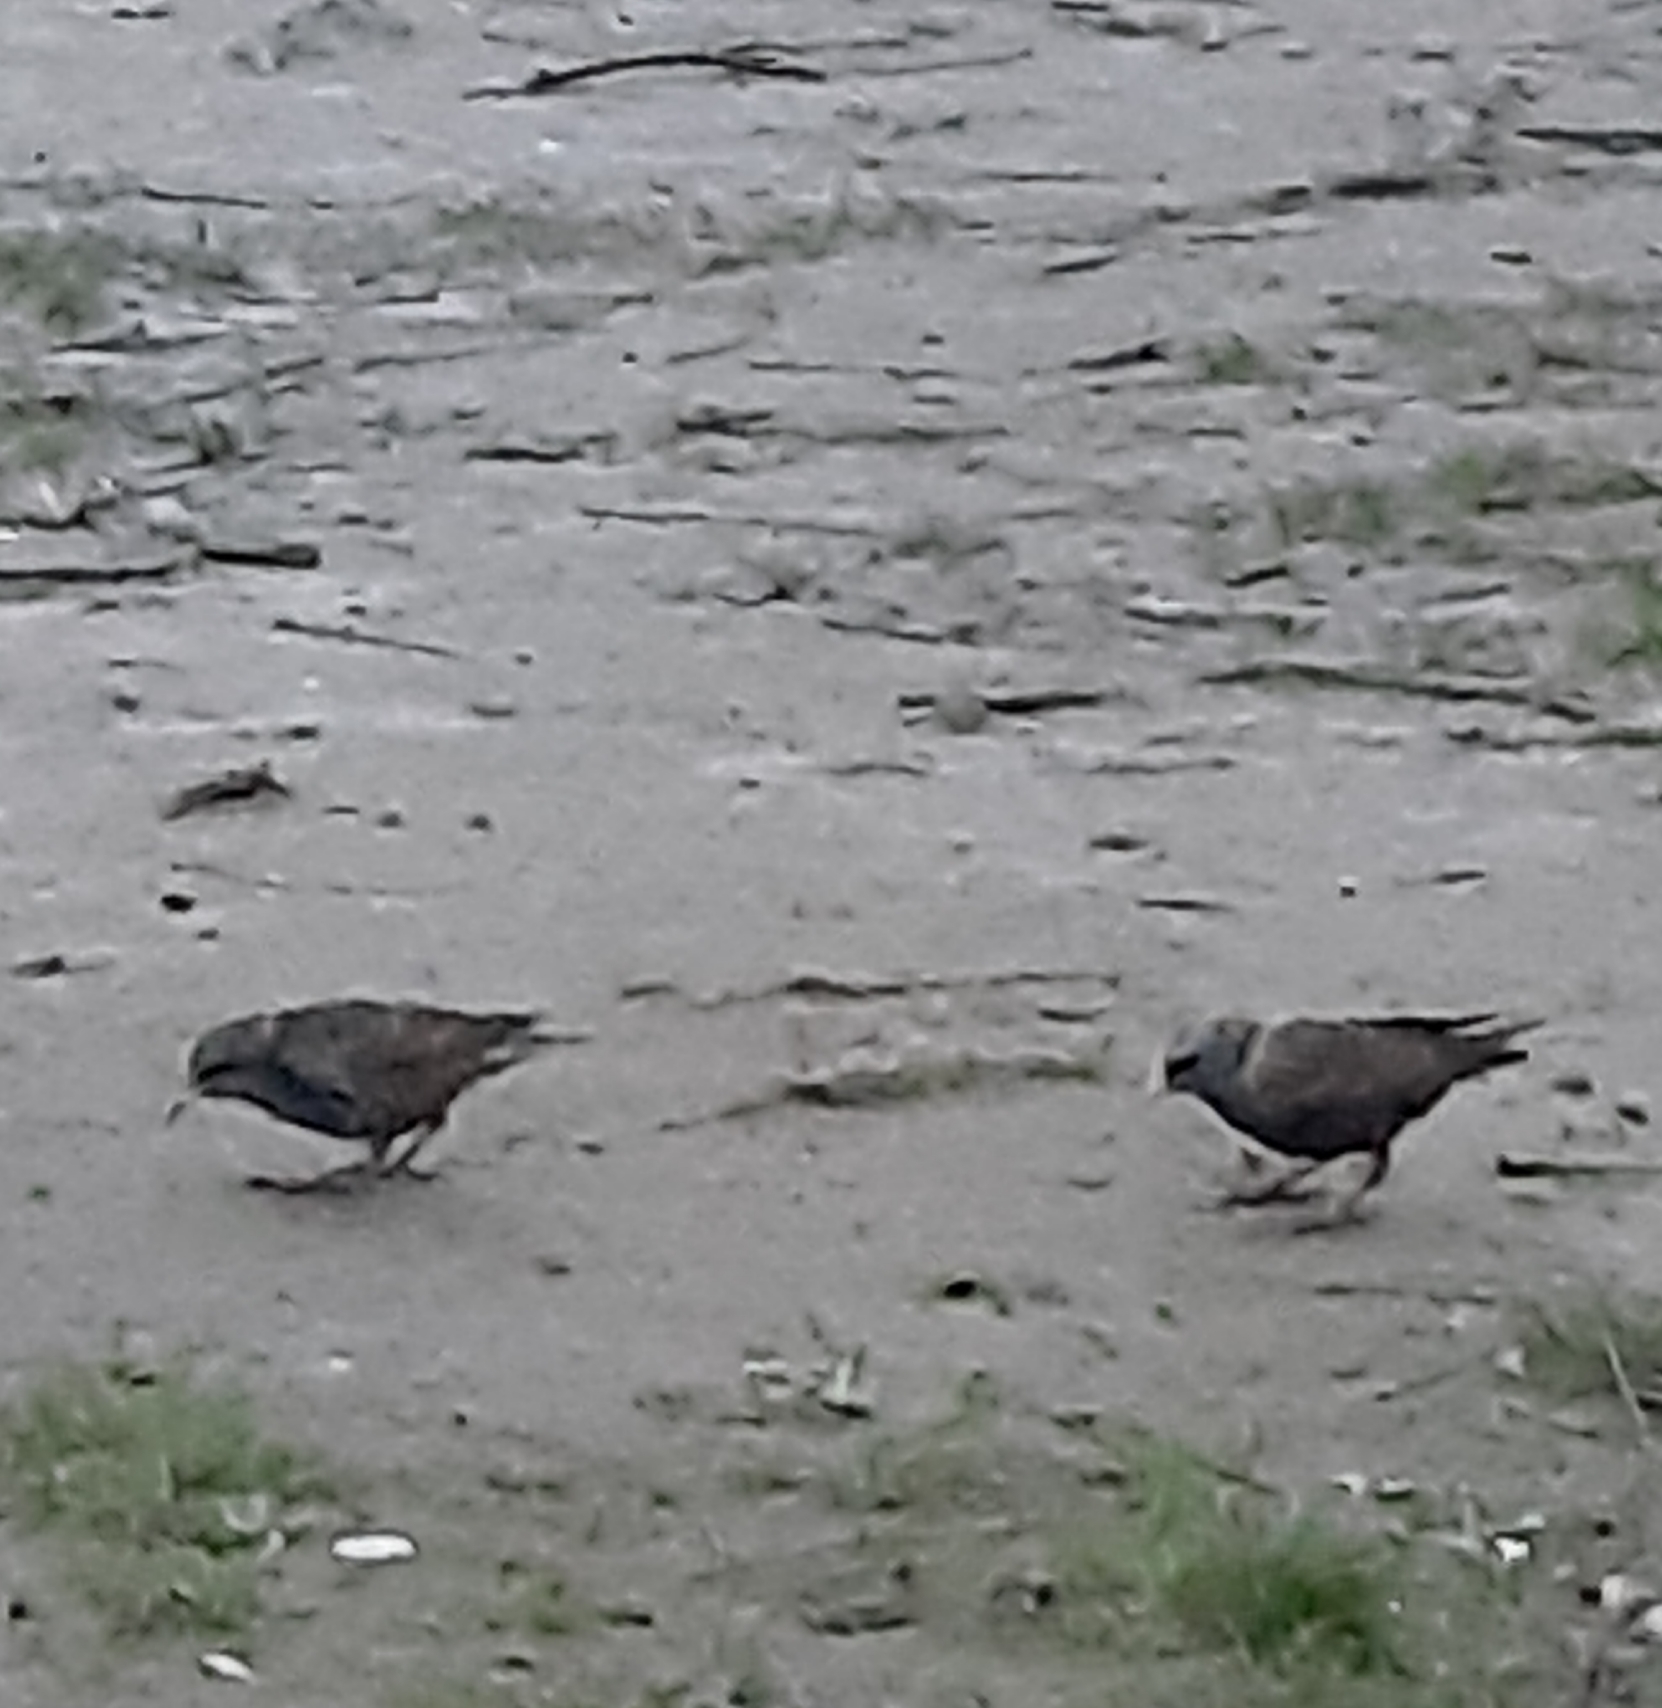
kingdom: Animalia
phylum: Chordata
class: Aves
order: Passeriformes
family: Sturnidae
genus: Sturnus
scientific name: Sturnus vulgaris
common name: Common starling
